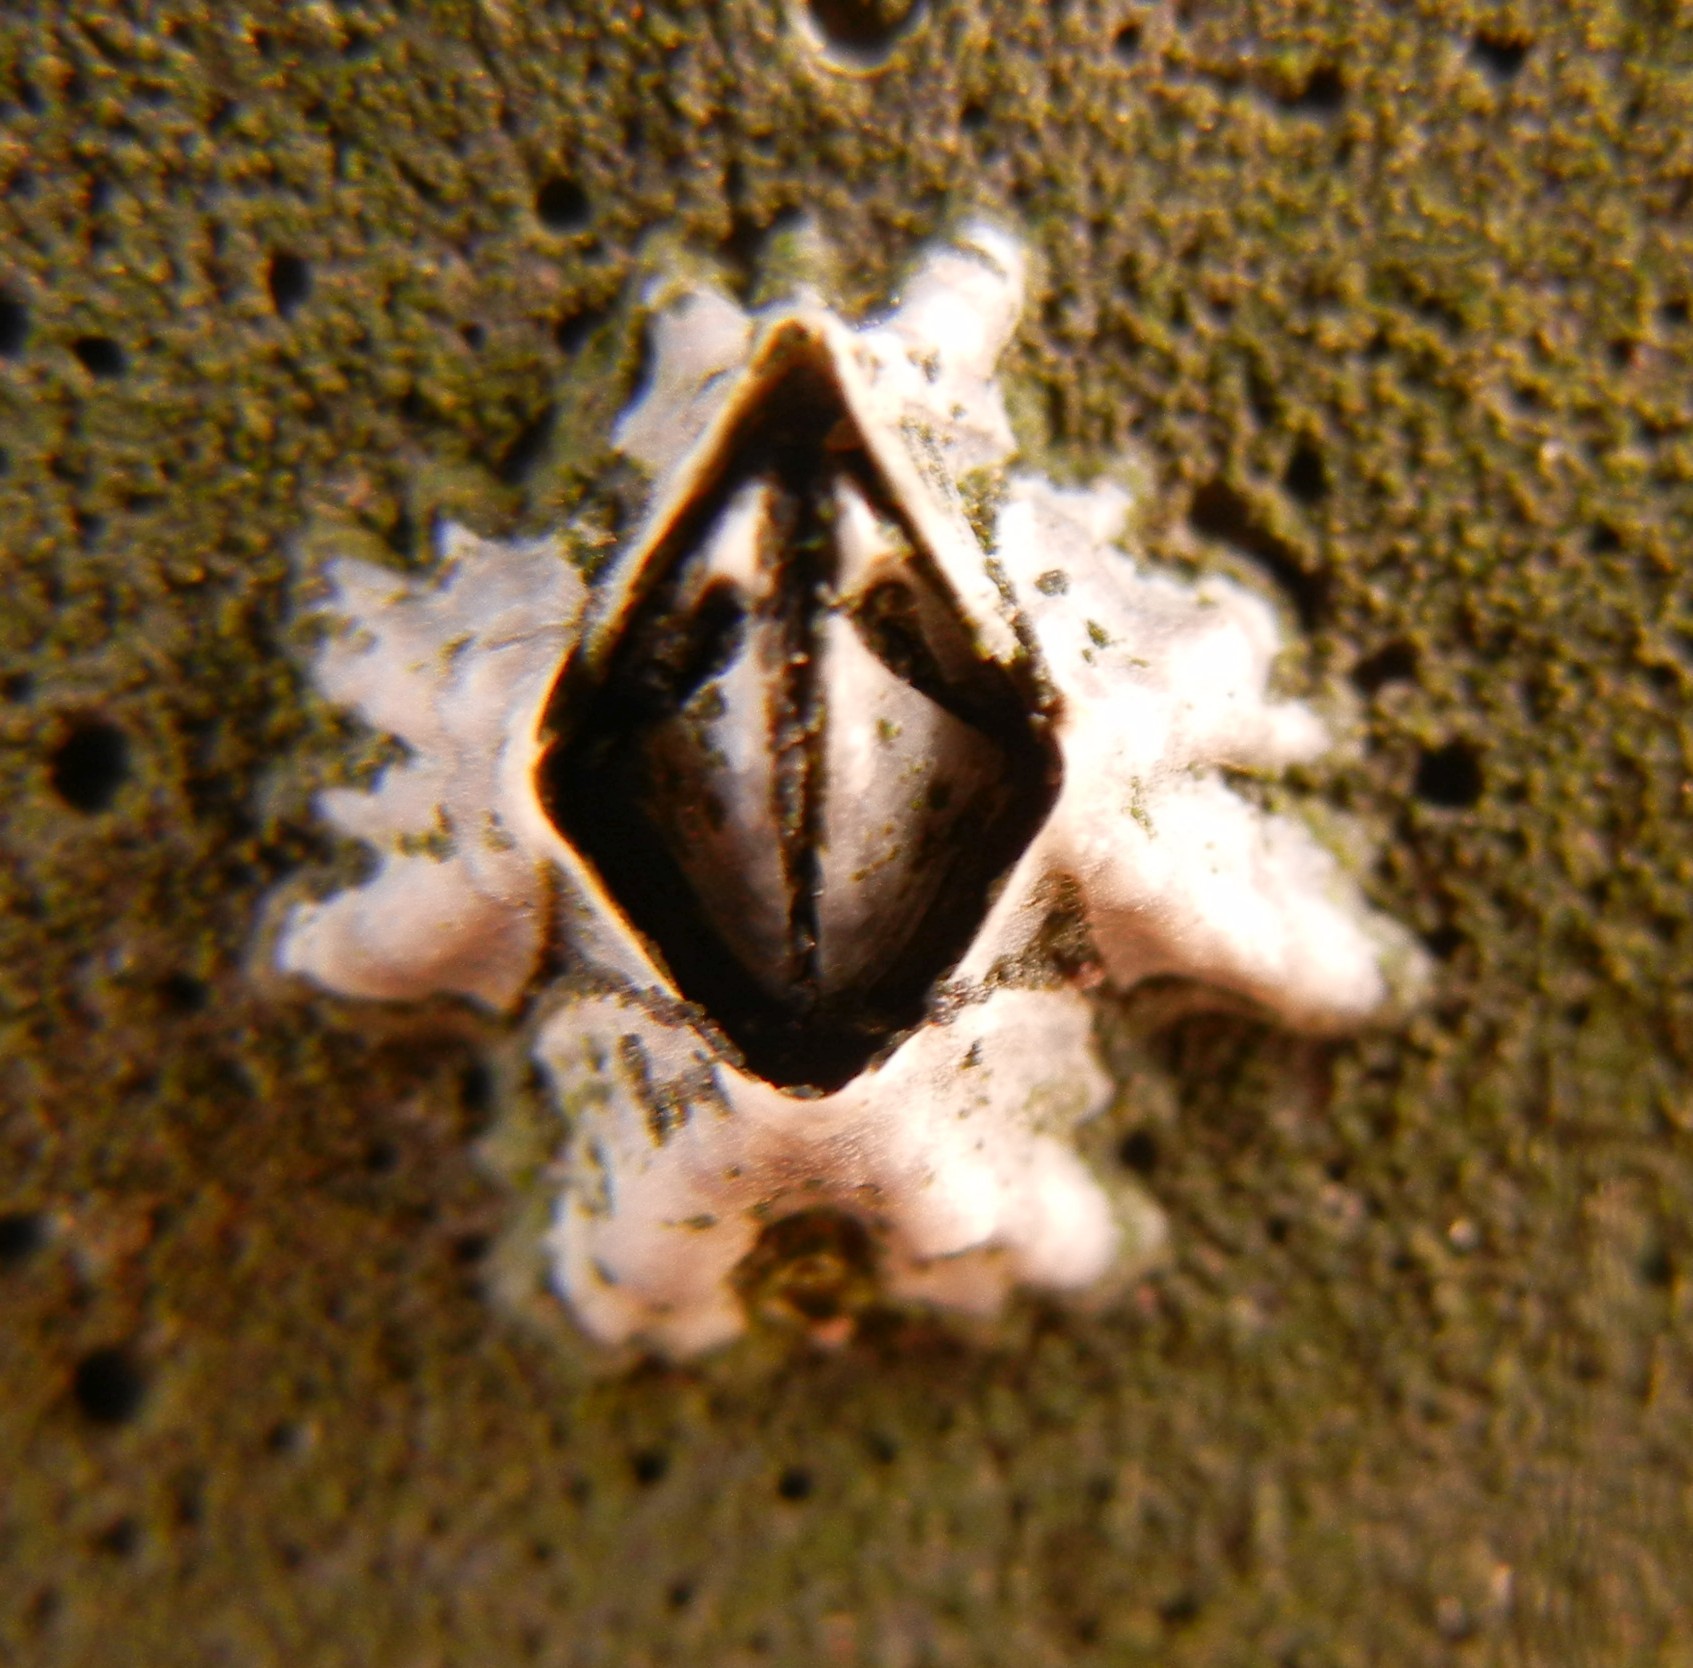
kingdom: Animalia
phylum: Arthropoda
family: Elminiidae
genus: Austrominius
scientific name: Austrominius modestus
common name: Australasian barnacle
